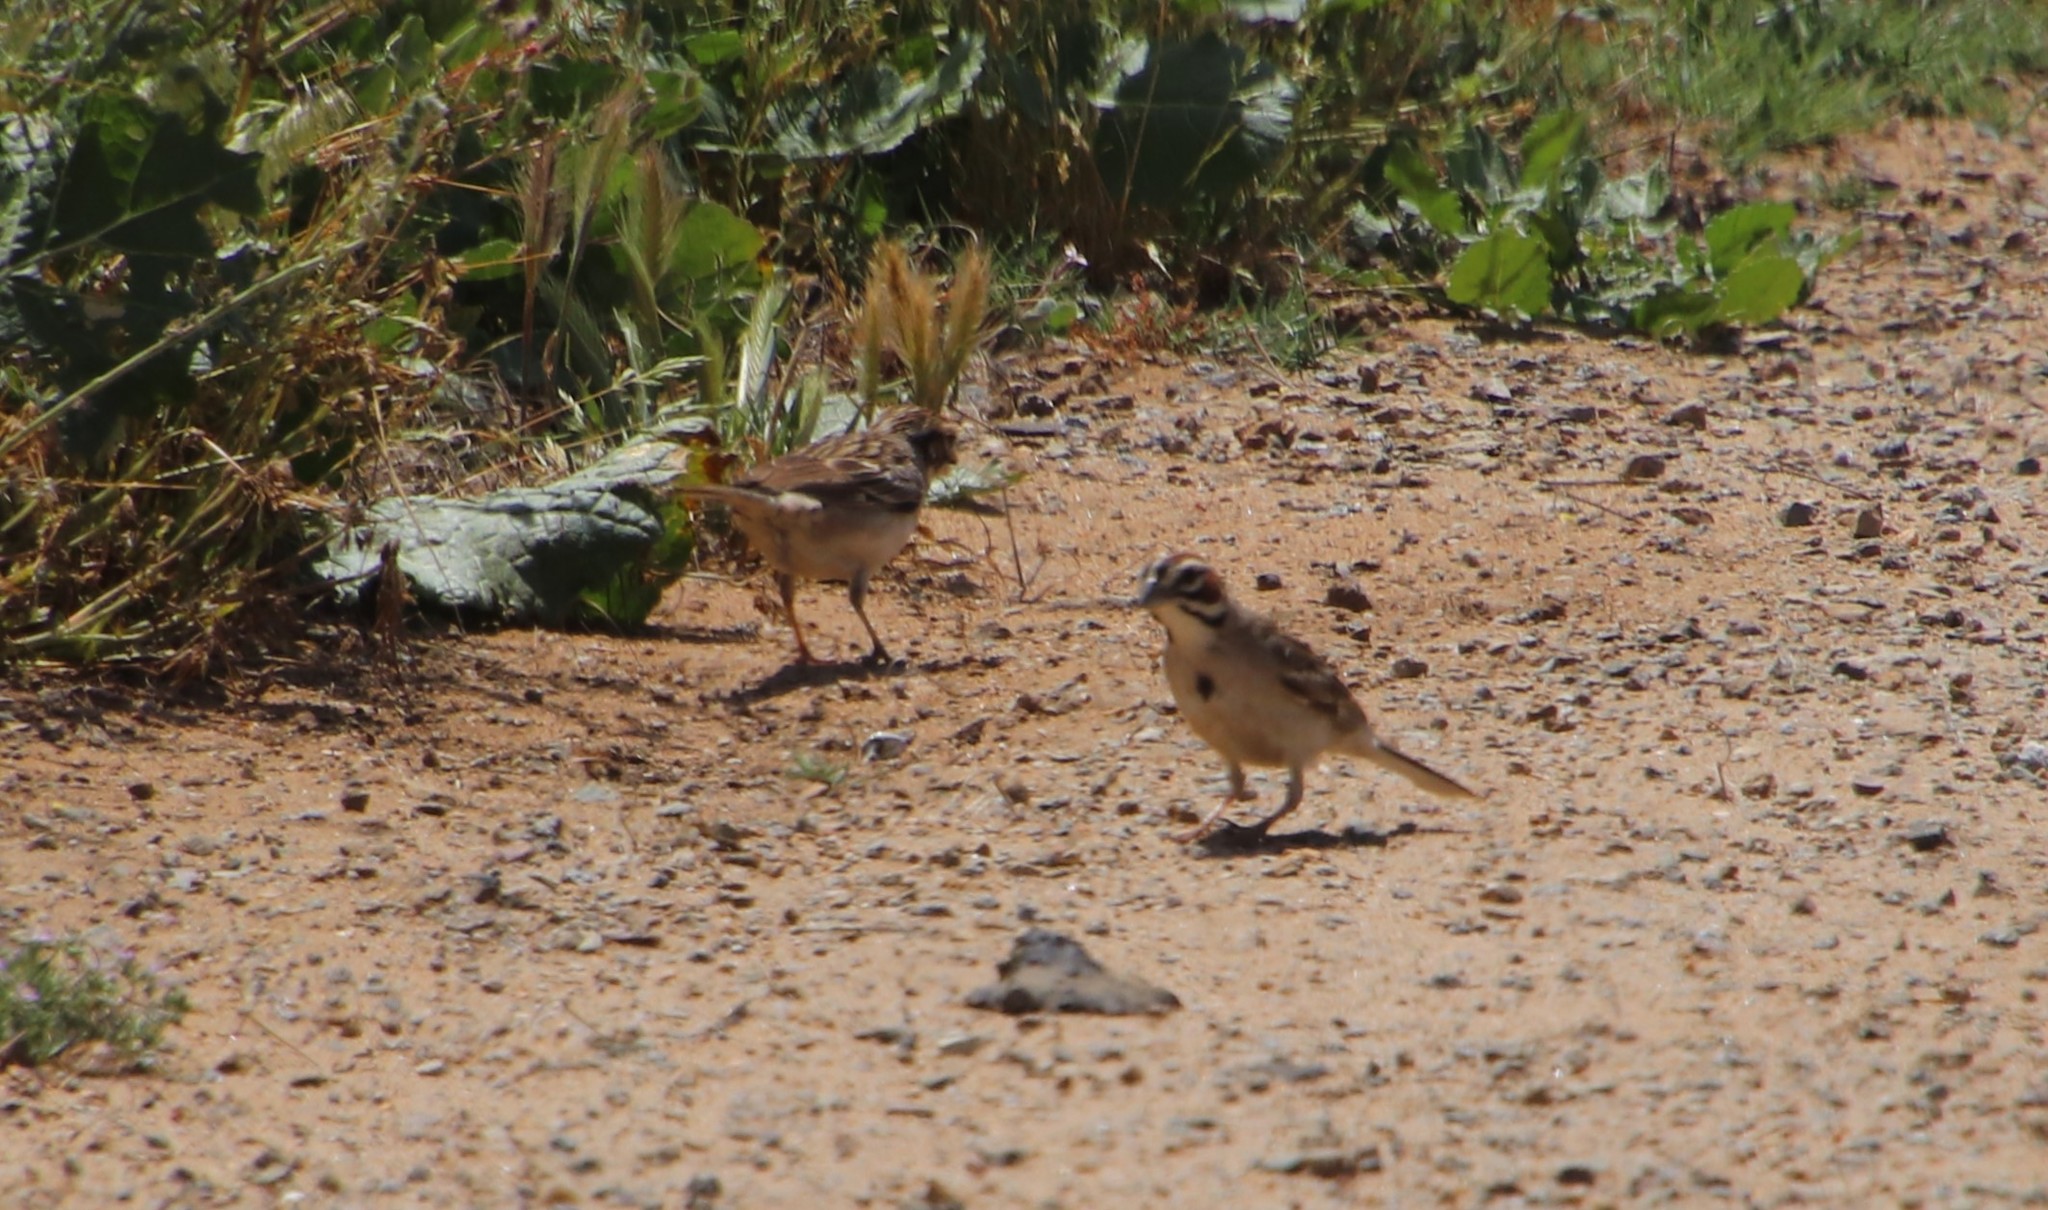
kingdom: Animalia
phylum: Chordata
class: Aves
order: Passeriformes
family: Passerellidae
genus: Chondestes
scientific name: Chondestes grammacus
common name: Lark sparrow
